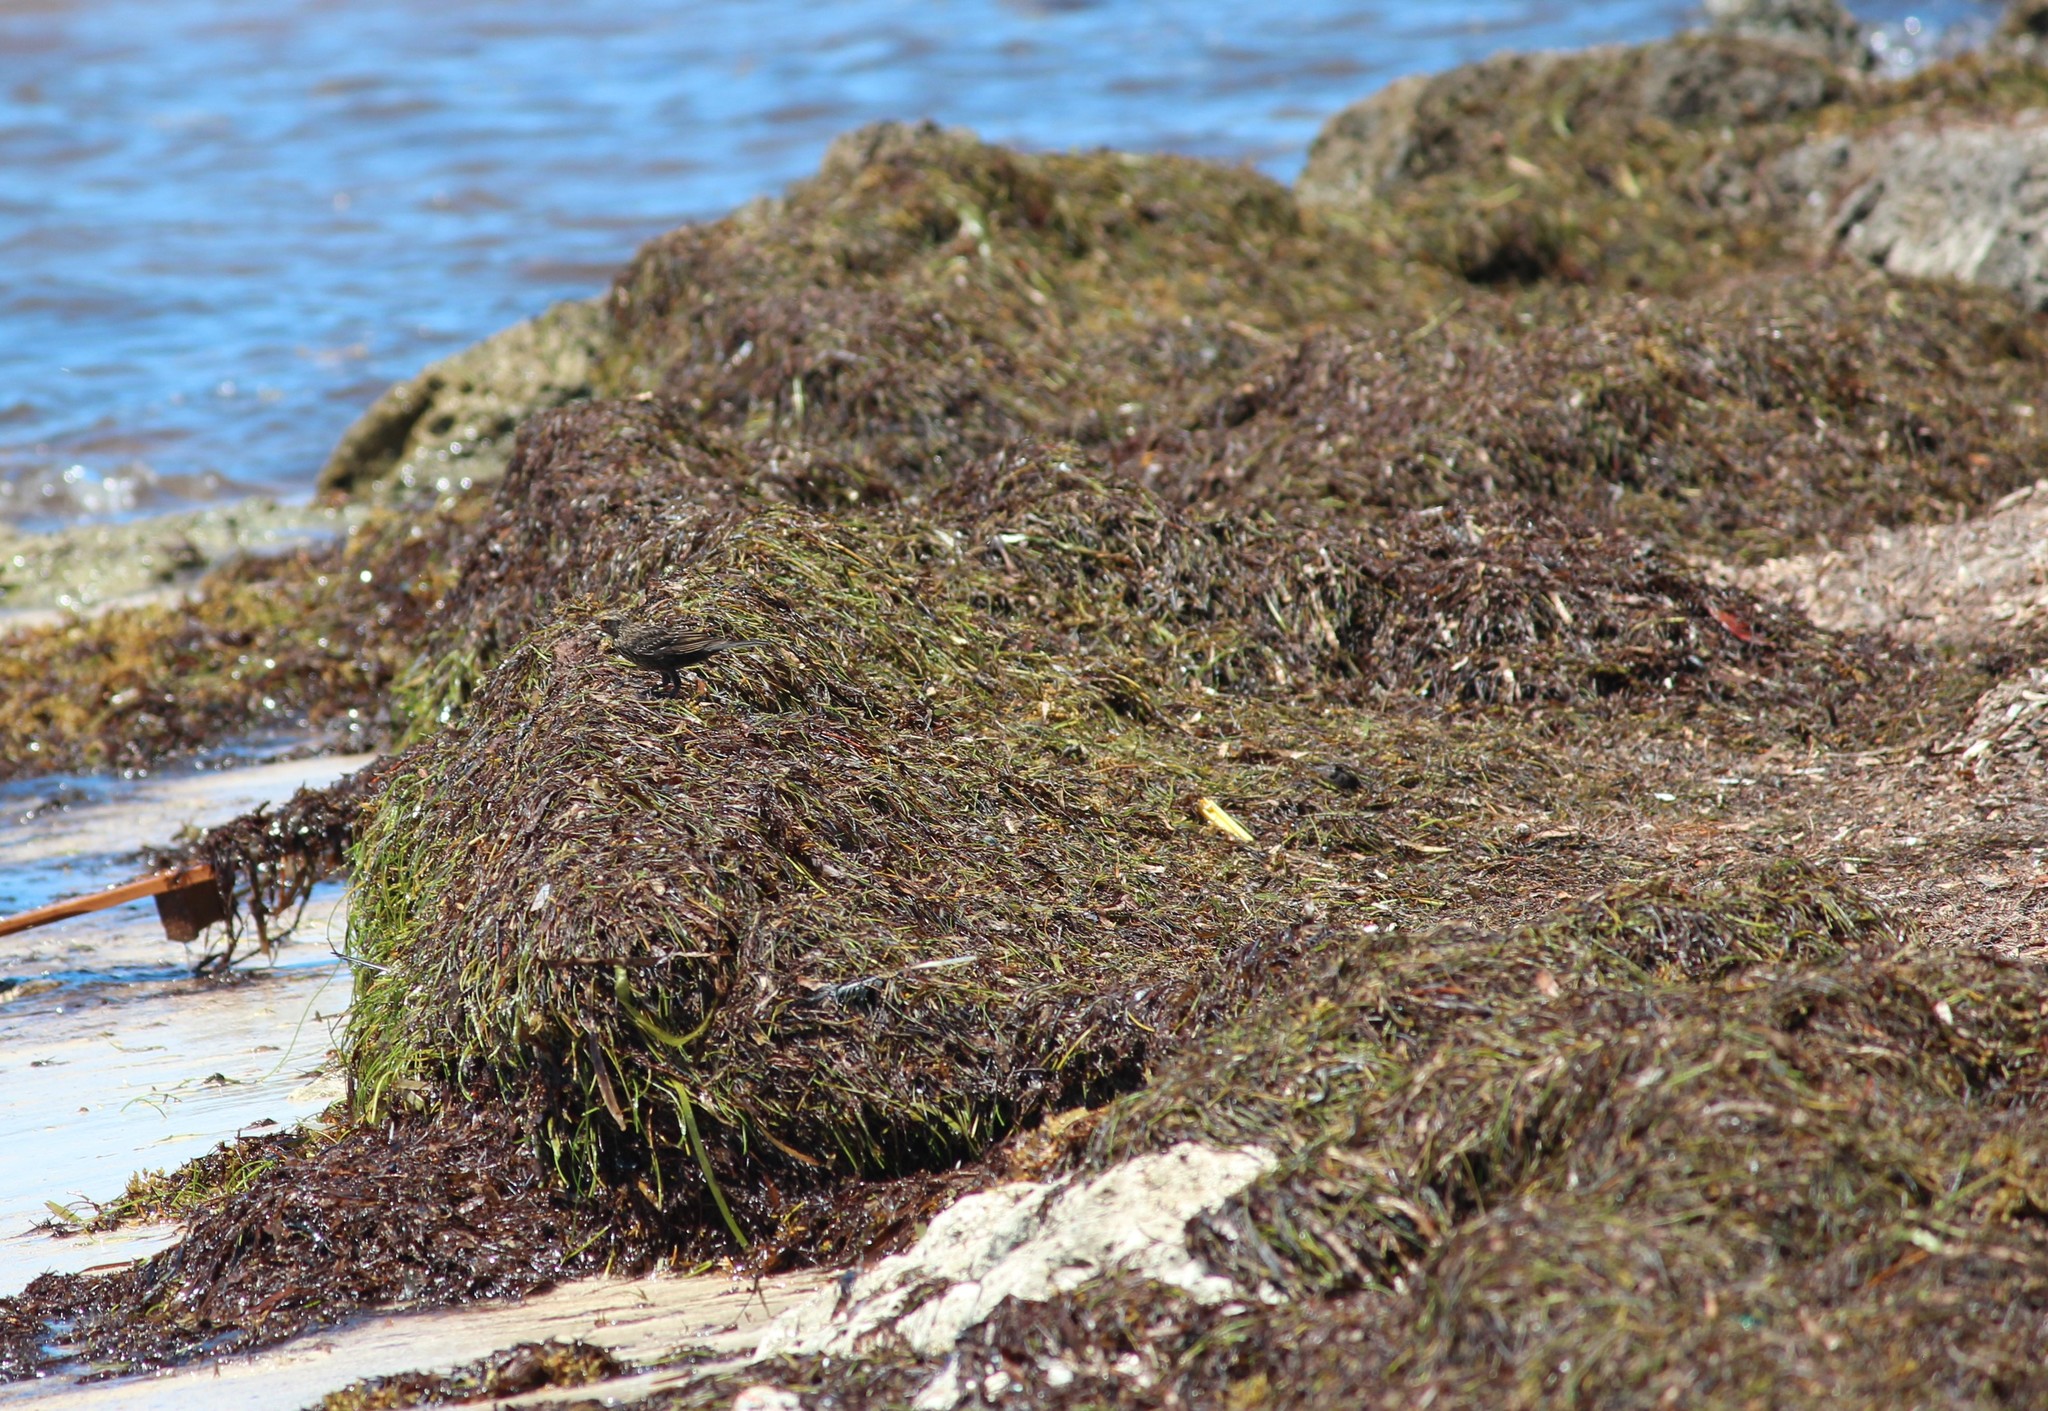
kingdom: Plantae
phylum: Tracheophyta
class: Liliopsida
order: Alismatales
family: Hydrocharitaceae
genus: Thalassia
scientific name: Thalassia testudinum
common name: Species code: tt
